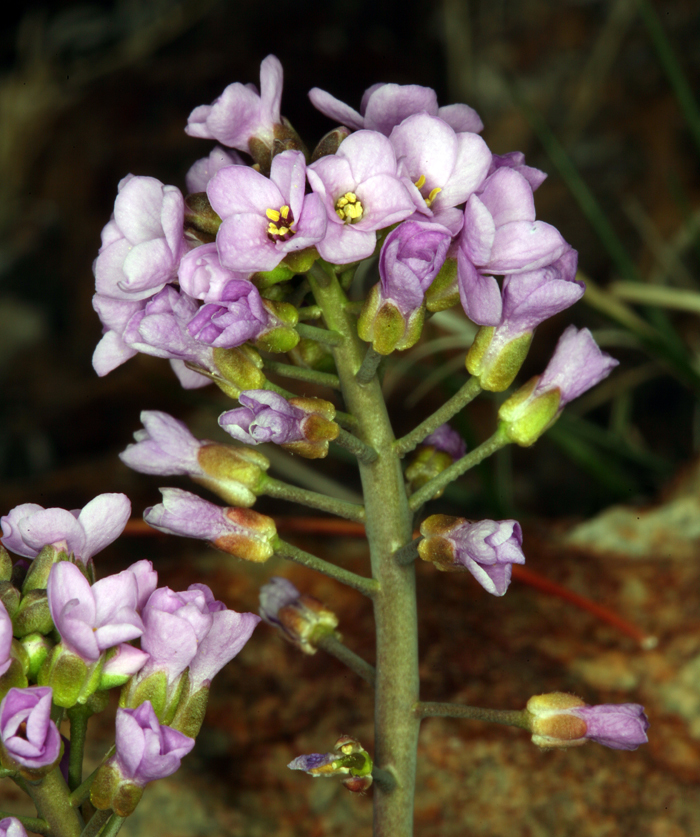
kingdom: Plantae
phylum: Tracheophyta
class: Magnoliopsida
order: Brassicales
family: Brassicaceae
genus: Phoenicaulis
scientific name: Phoenicaulis cheiranthoides
